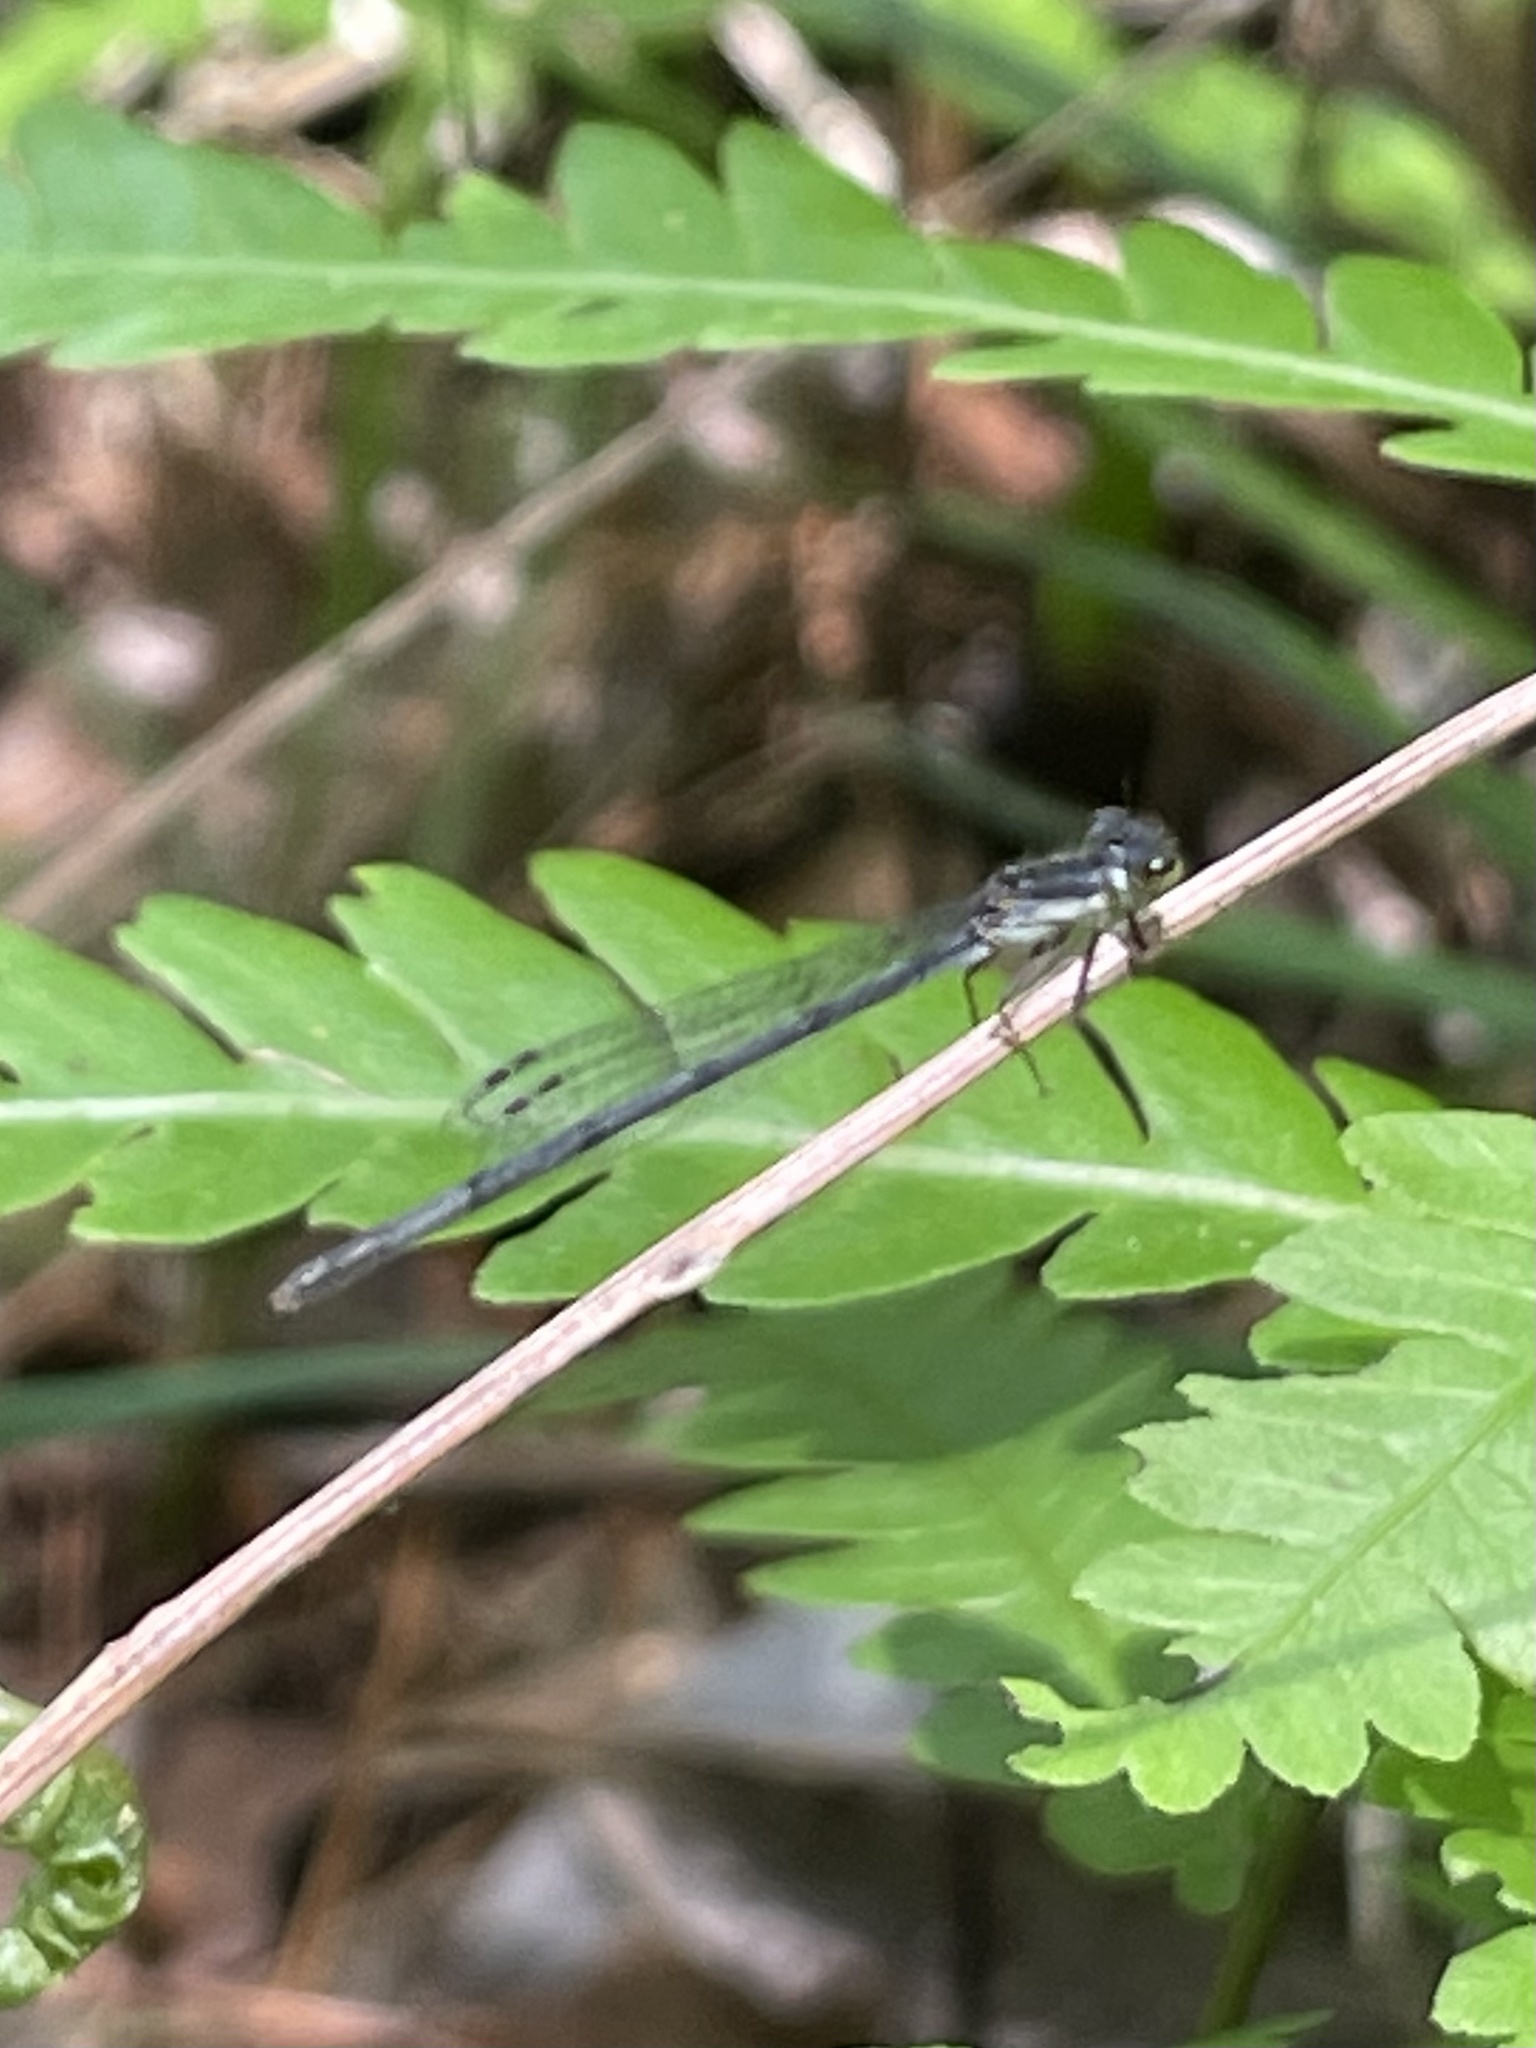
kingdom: Animalia
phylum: Arthropoda
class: Insecta
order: Odonata
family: Coenagrionidae
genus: Ischnura
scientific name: Ischnura posita
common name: Fragile forktail
